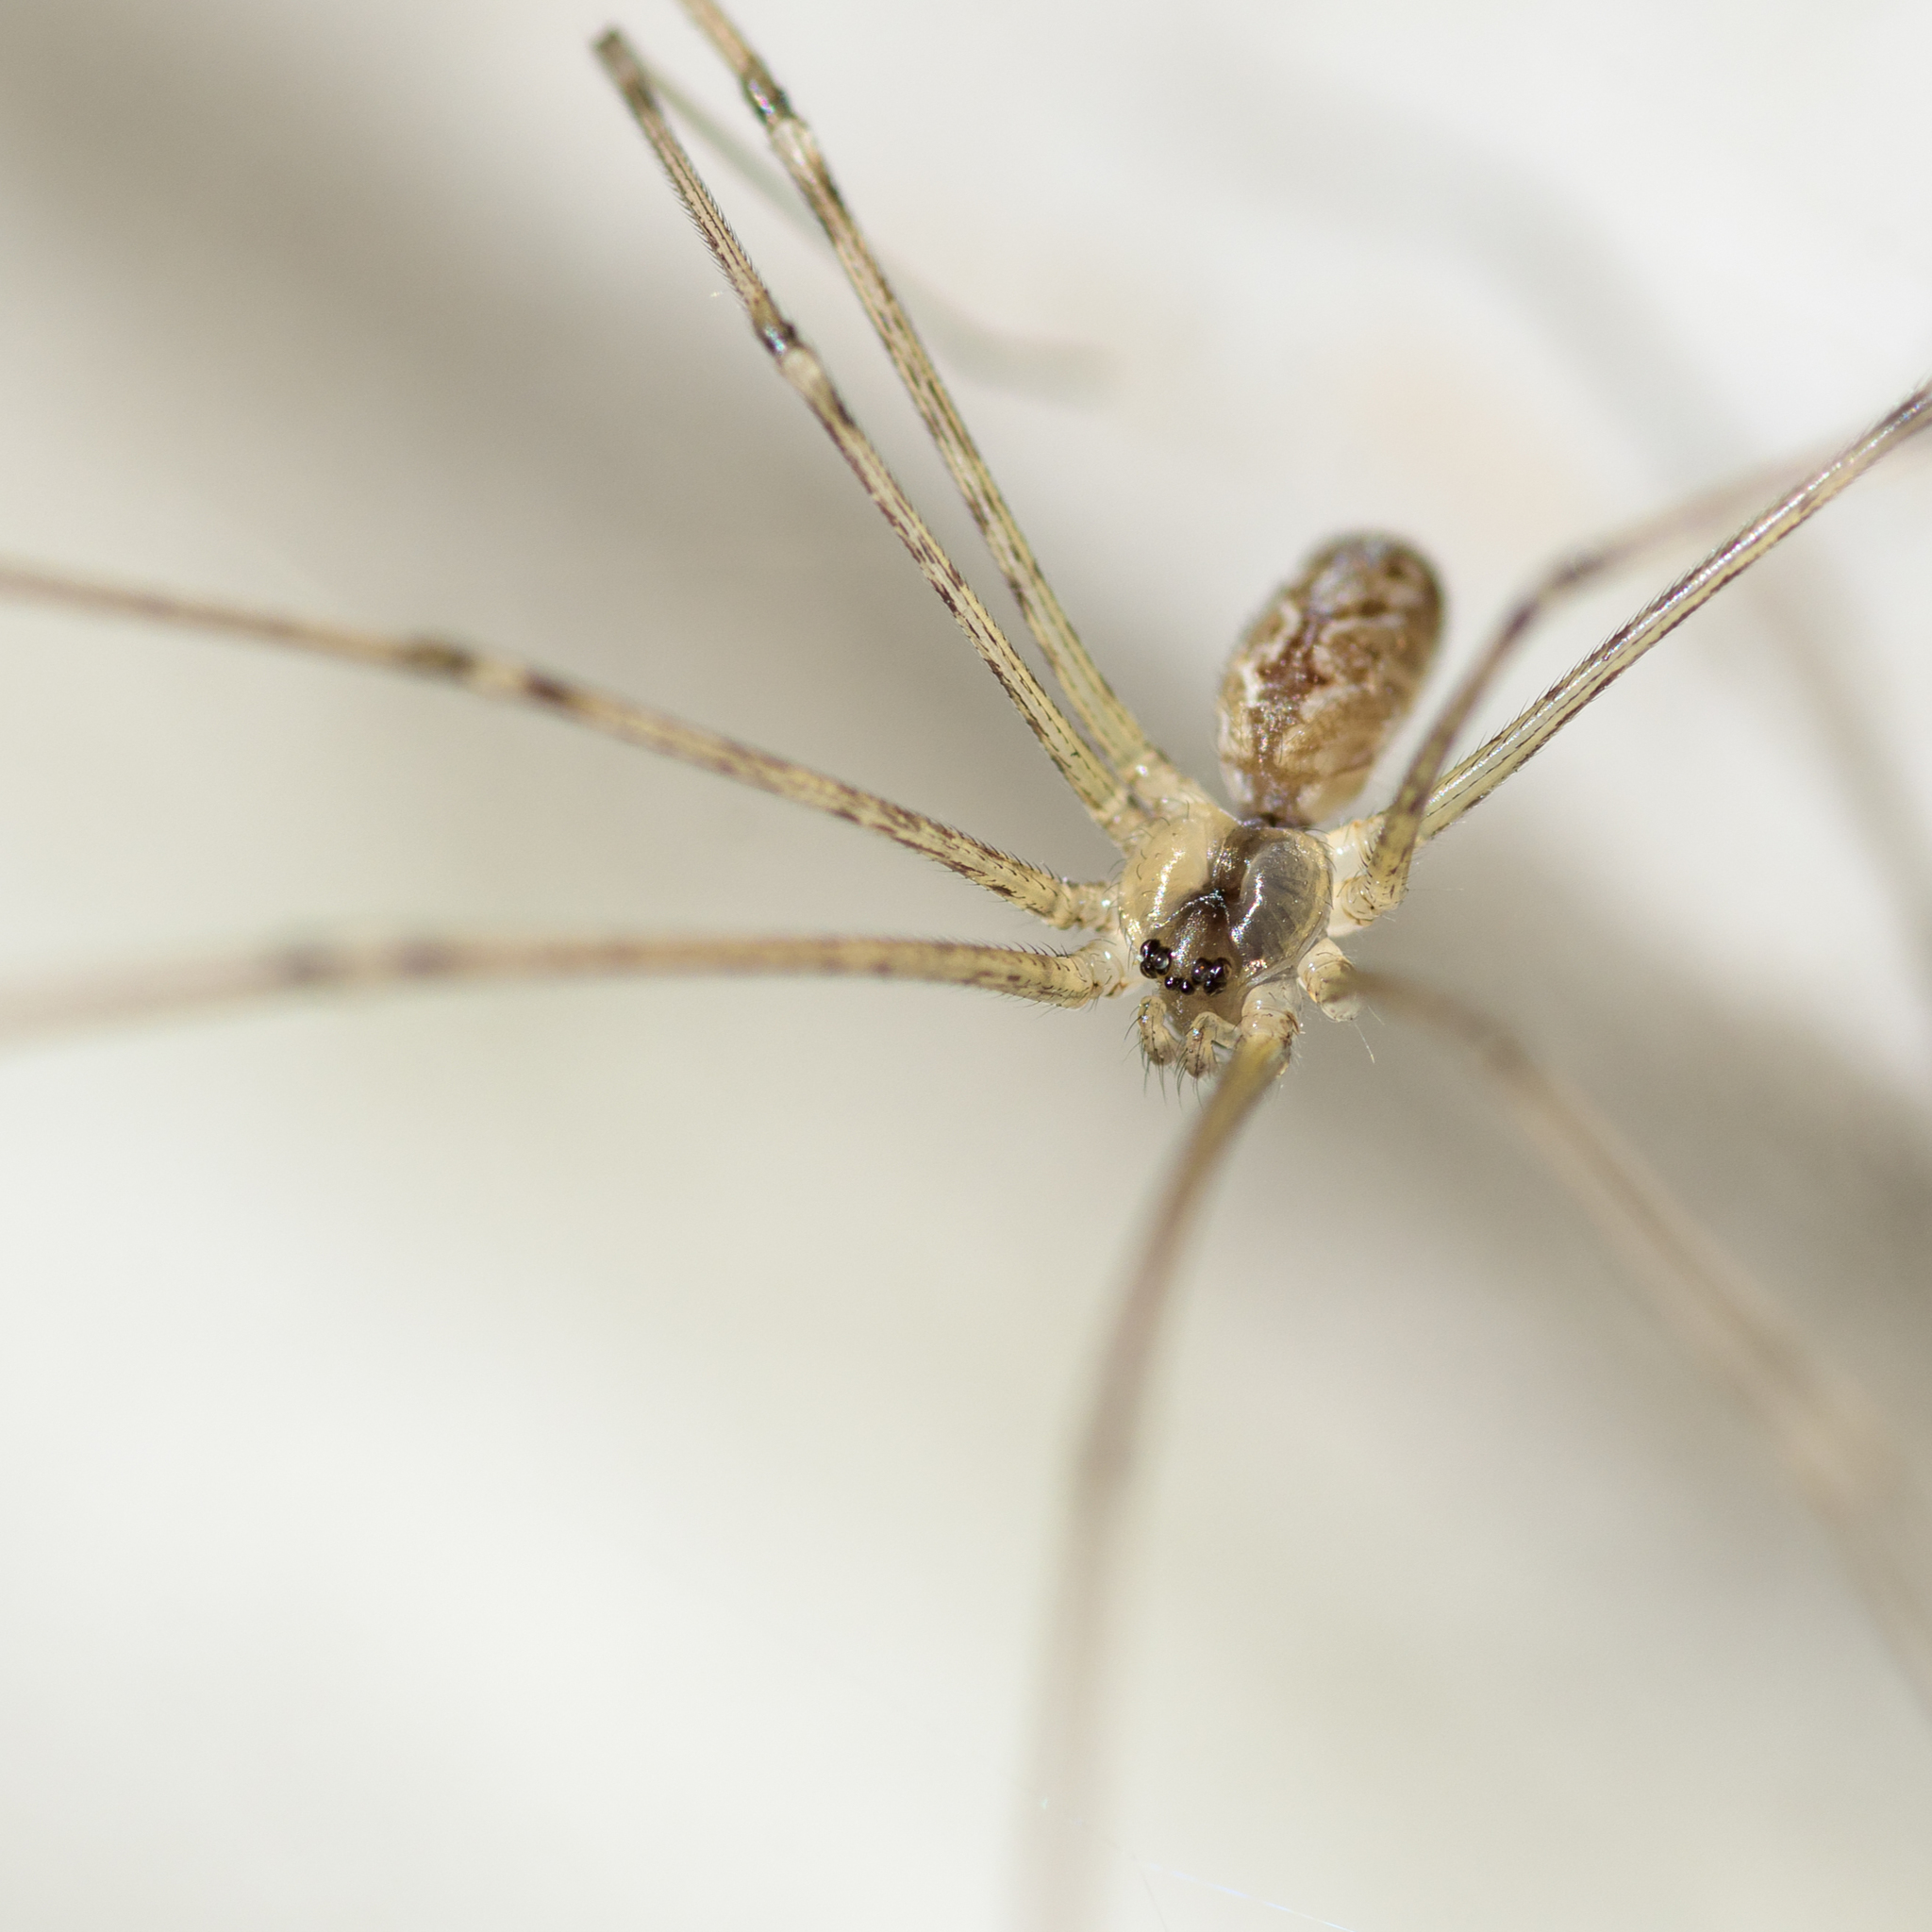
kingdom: Animalia
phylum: Arthropoda
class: Arachnida
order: Araneae
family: Pholcidae
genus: Holocnemus
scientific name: Holocnemus pluchei
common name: Marbled cellar spider
